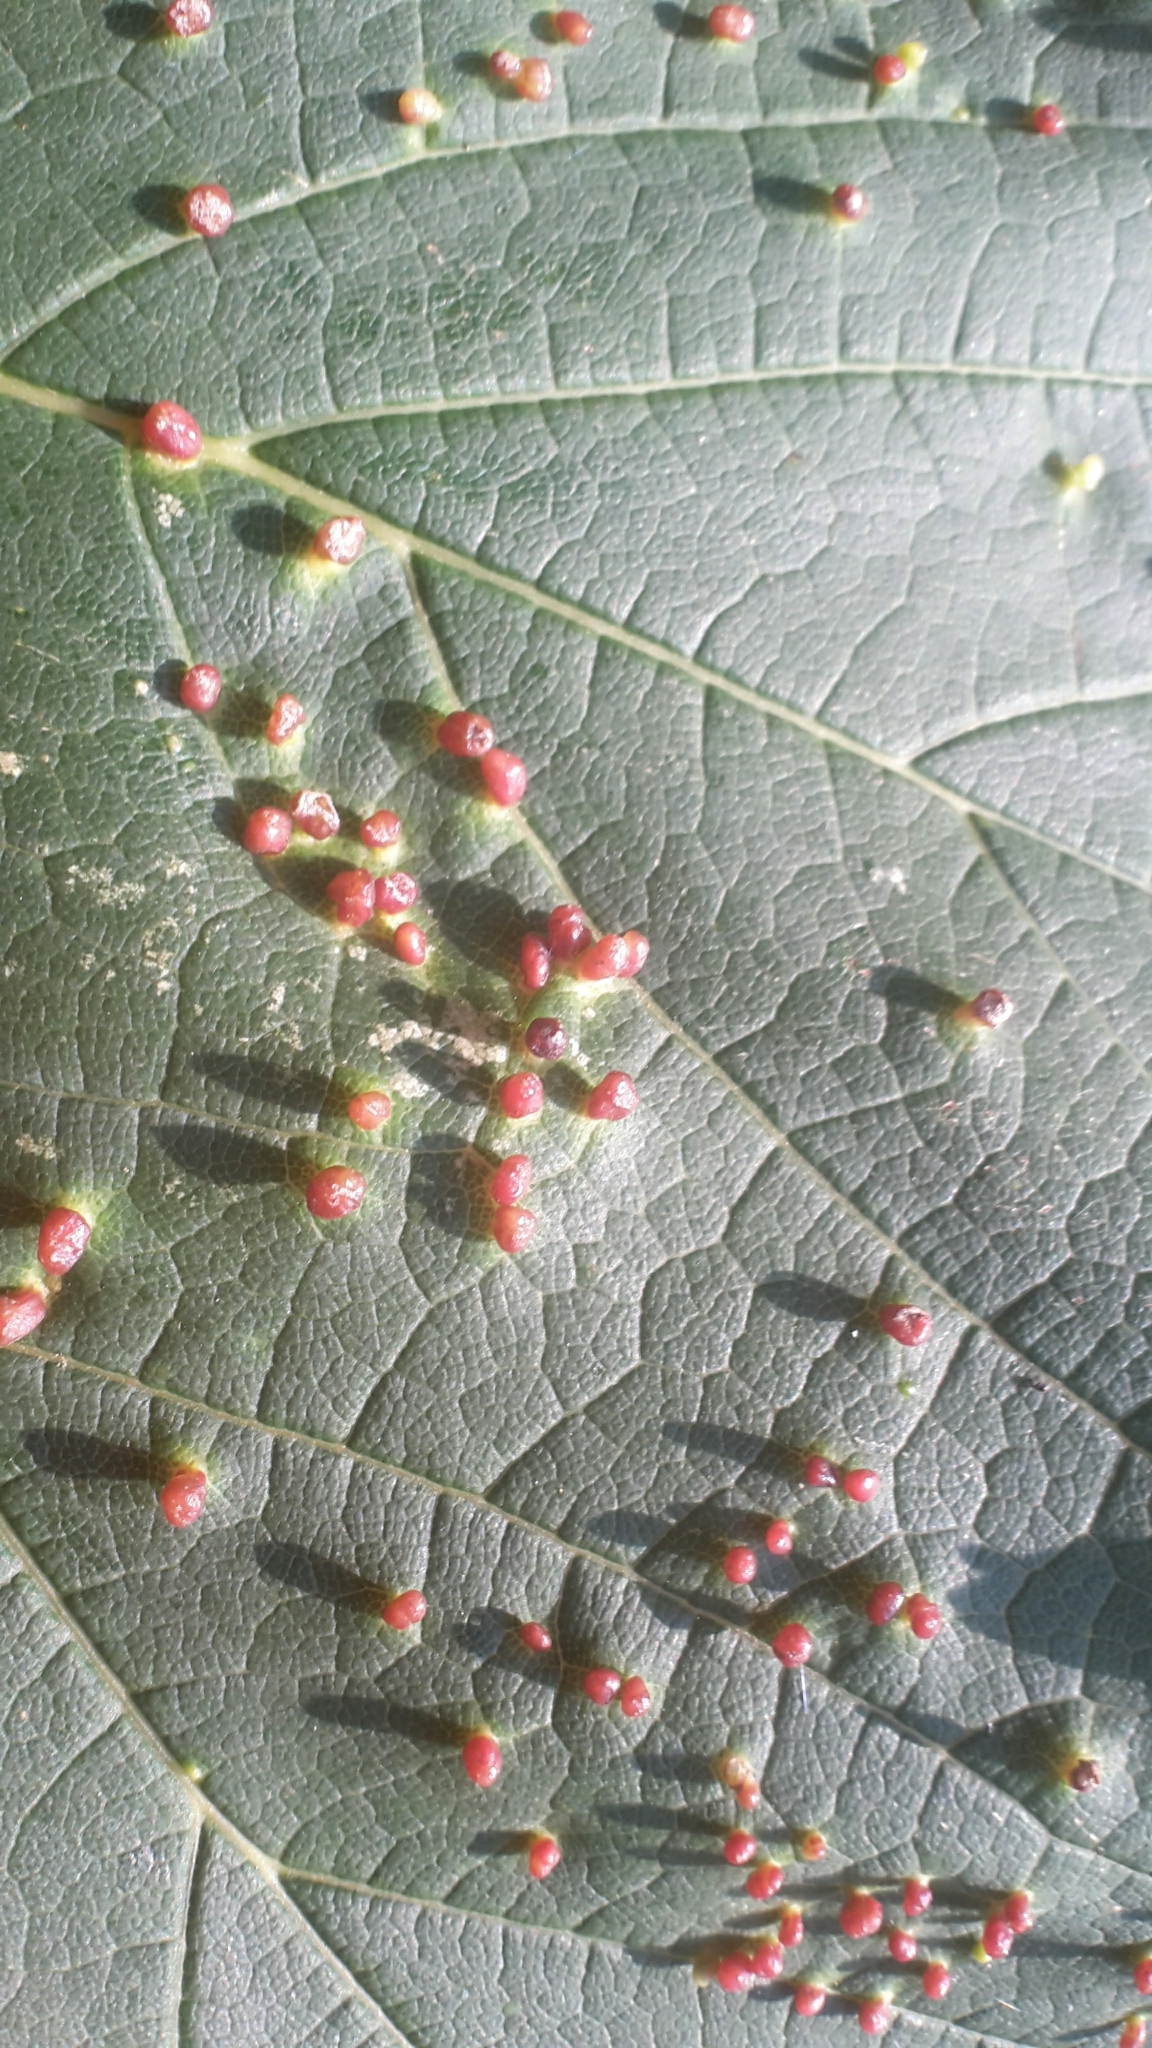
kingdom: Animalia
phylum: Arthropoda
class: Arachnida
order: Trombidiformes
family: Eriophyidae
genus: Aceria
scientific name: Aceria cephaloneus
